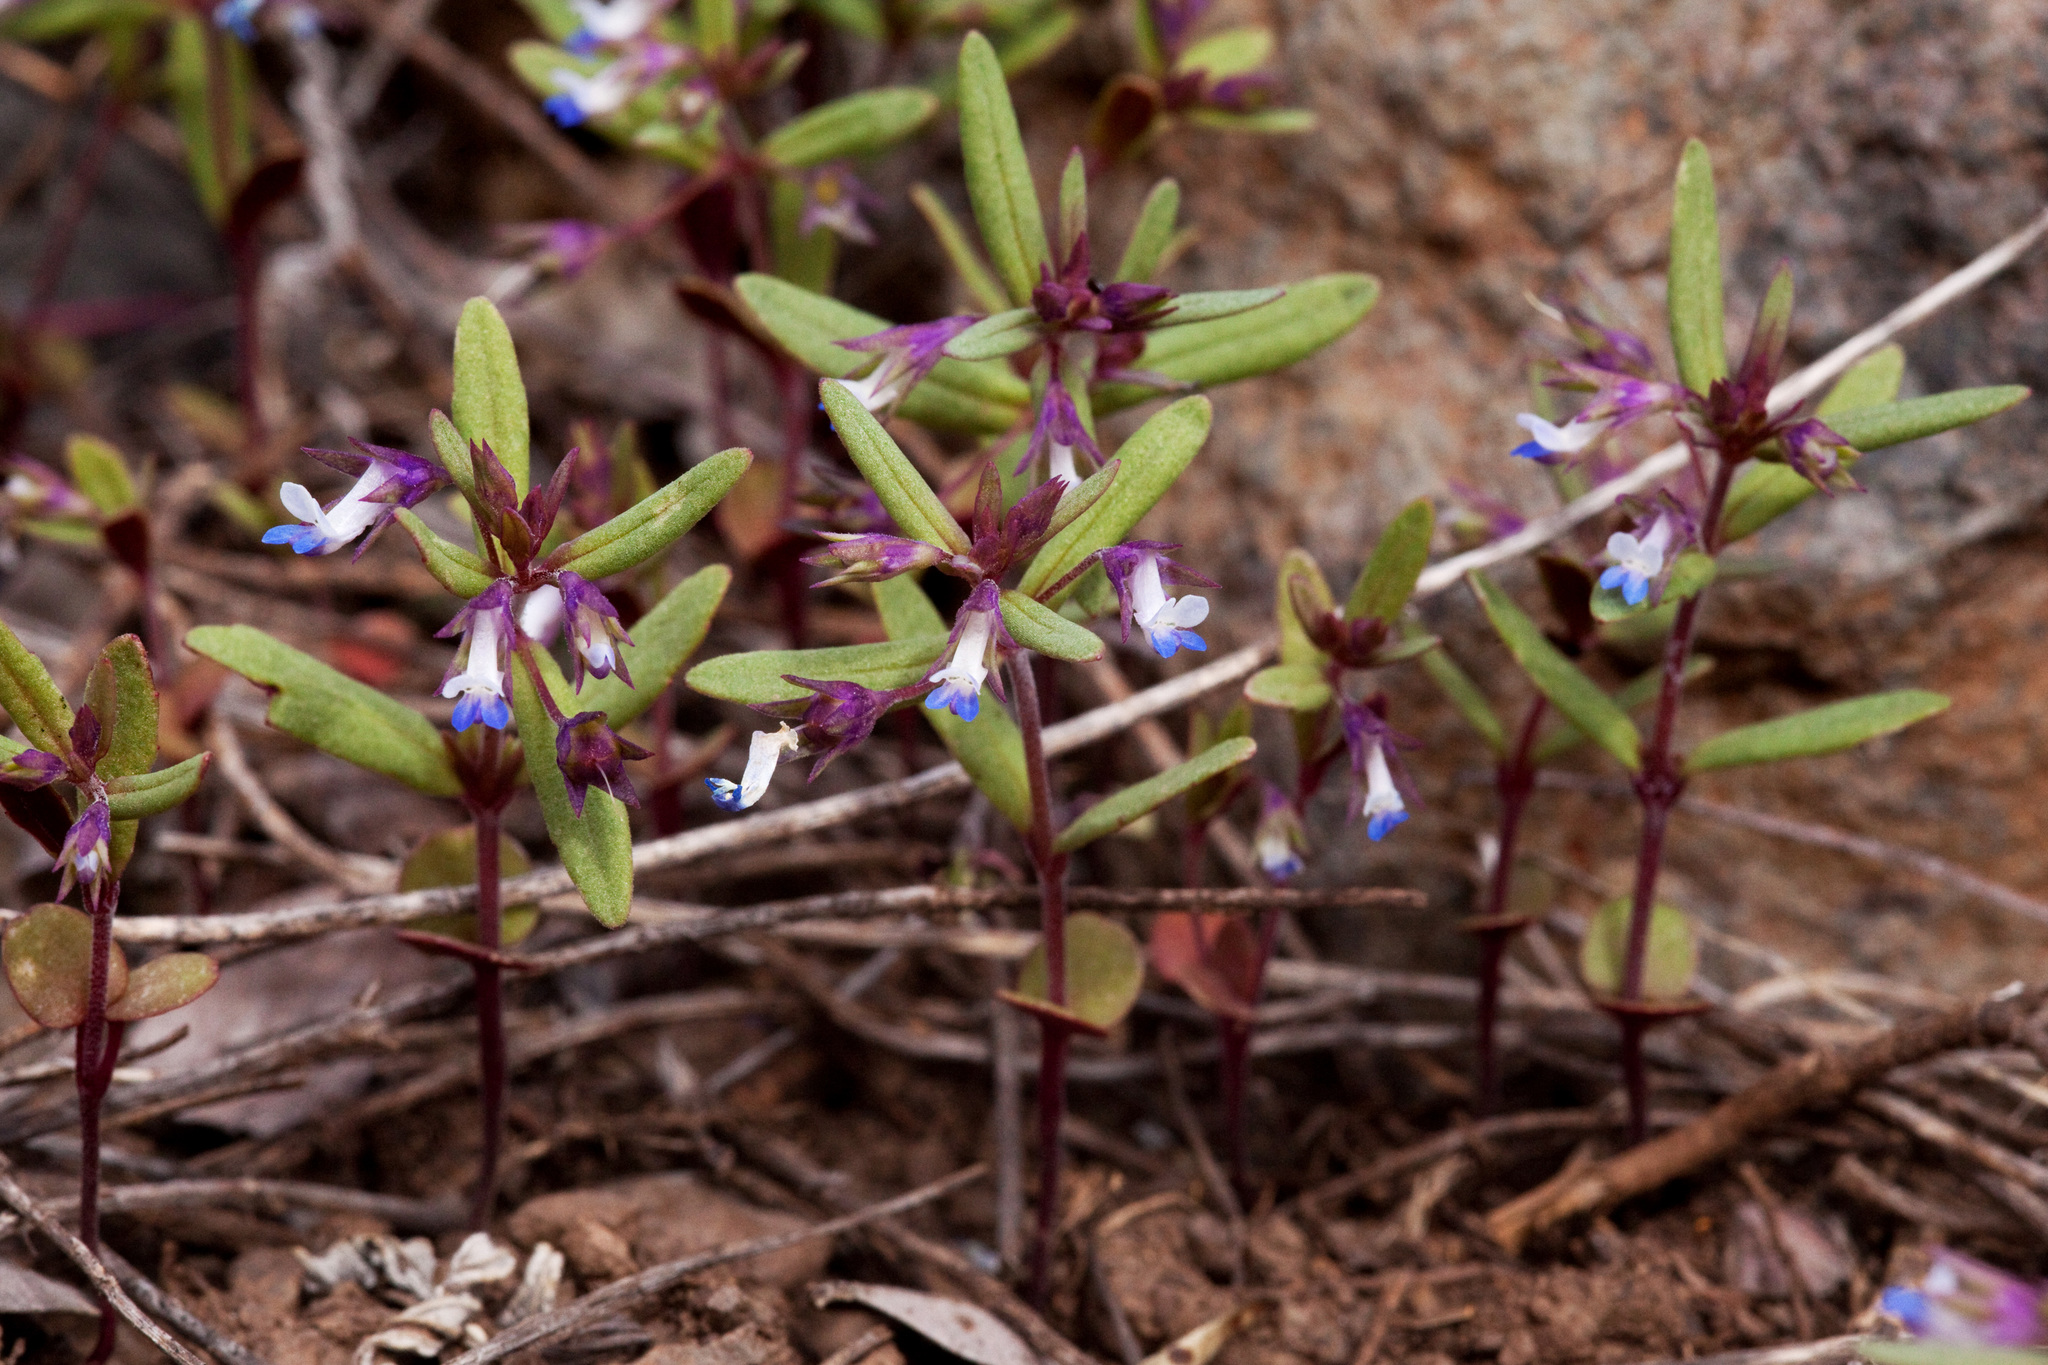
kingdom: Plantae
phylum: Tracheophyta
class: Magnoliopsida
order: Lamiales
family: Plantaginaceae
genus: Collinsia
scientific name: Collinsia parviflora
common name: Blue-lips
